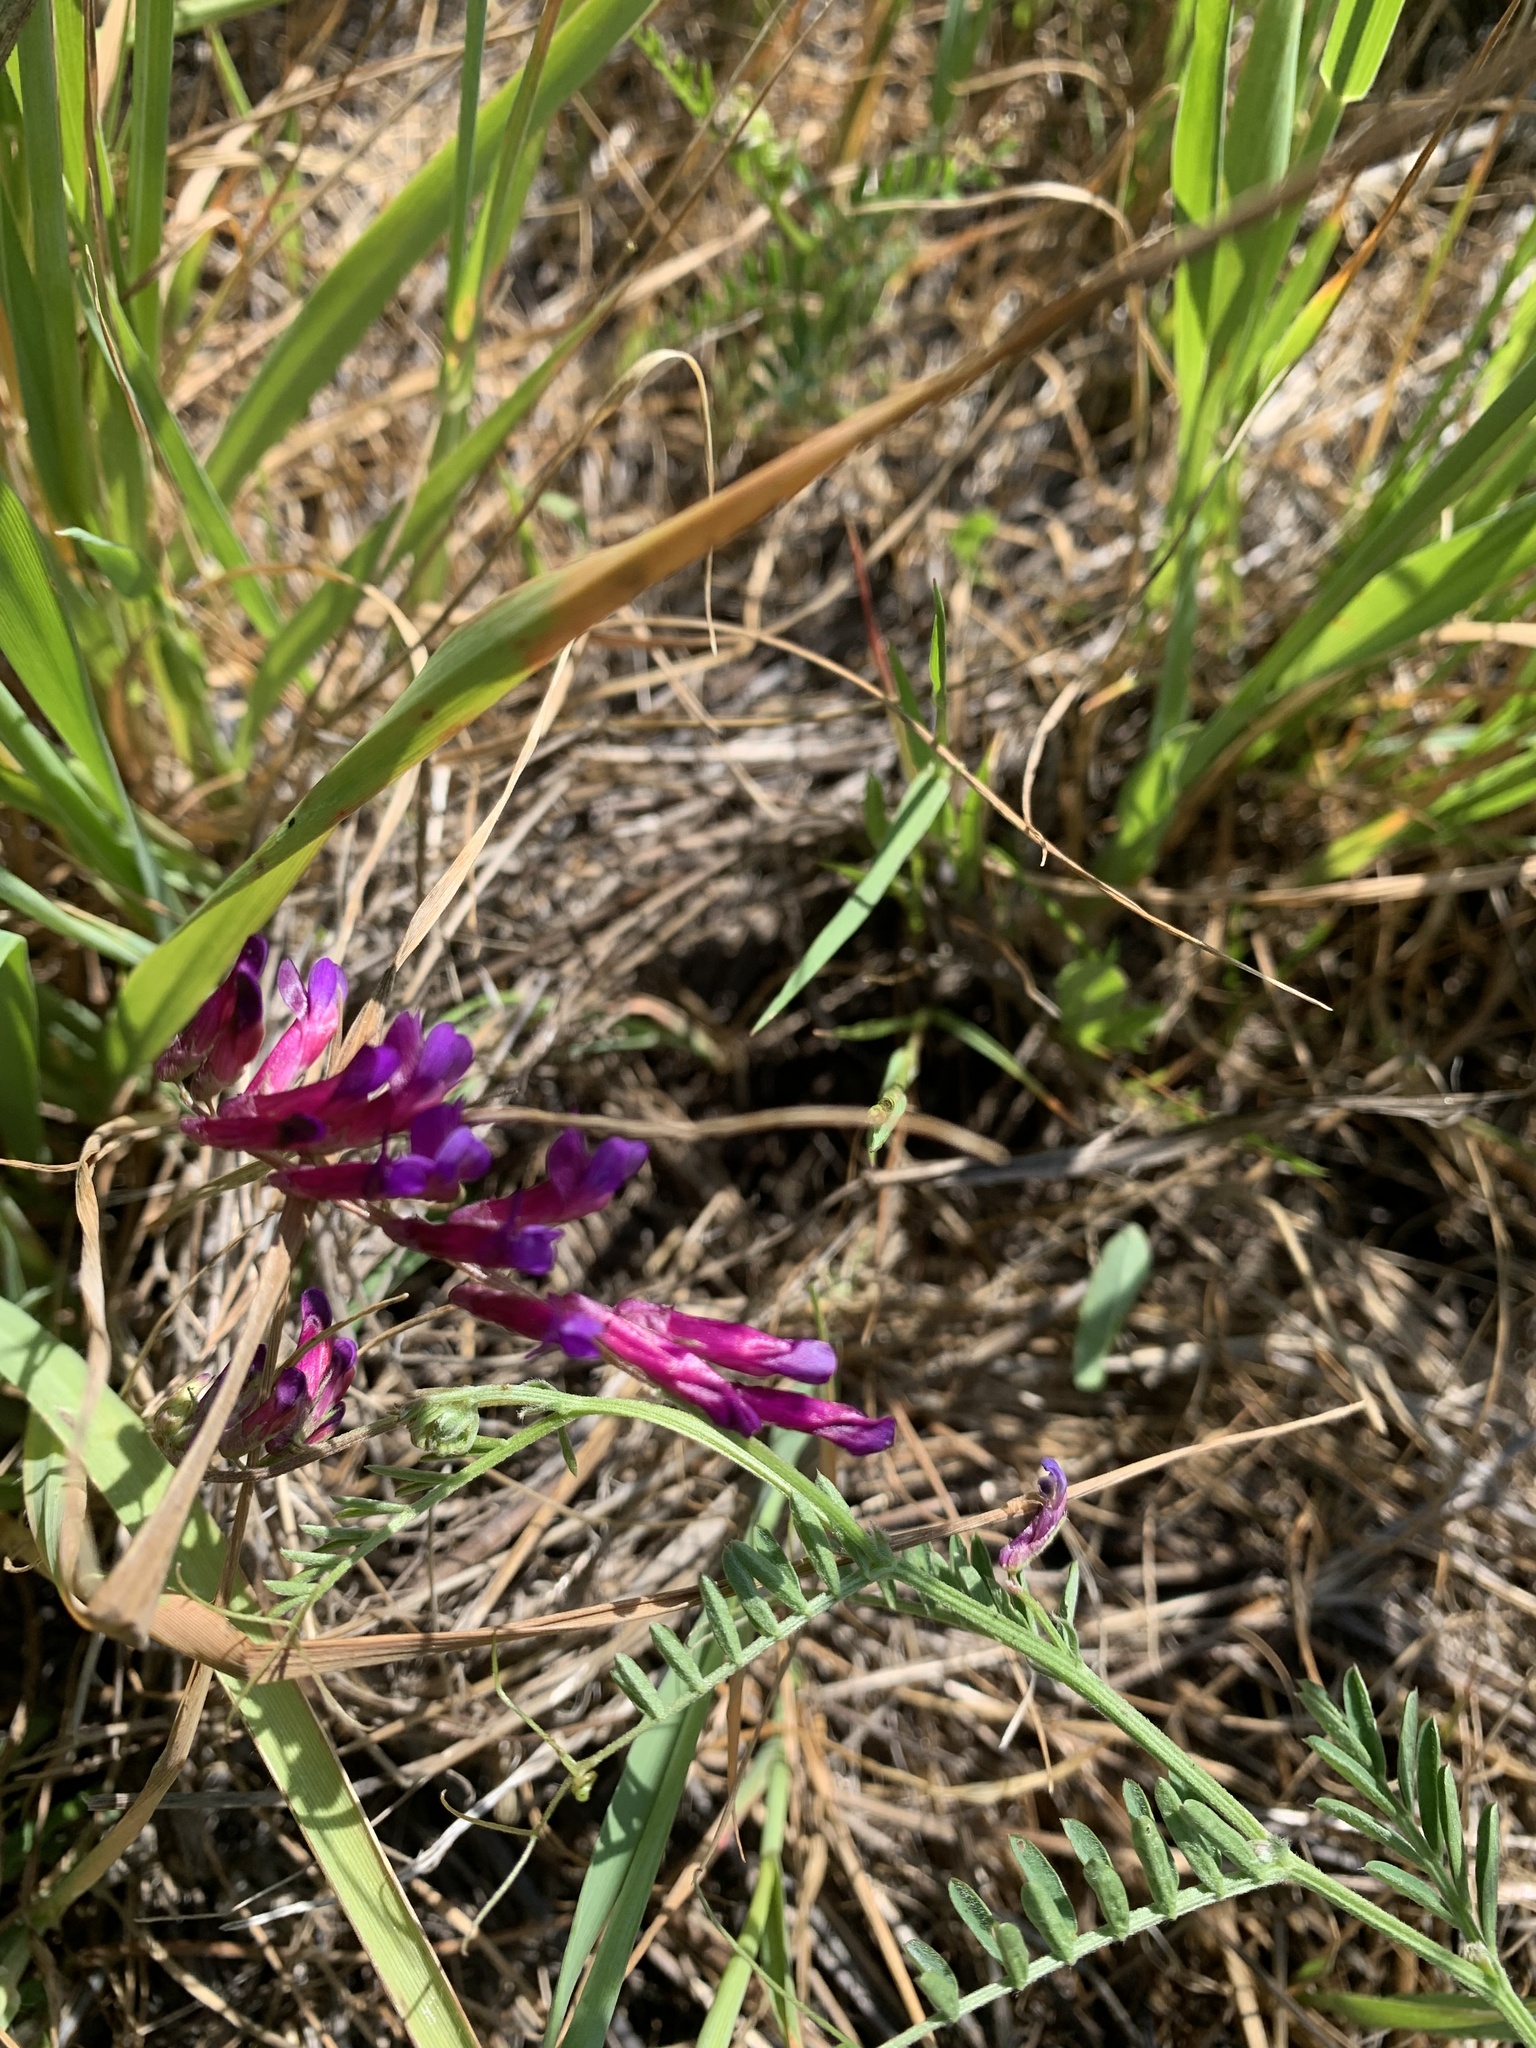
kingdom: Plantae
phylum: Tracheophyta
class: Magnoliopsida
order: Fabales
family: Fabaceae
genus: Vicia
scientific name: Vicia villosa
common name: Fodder vetch
